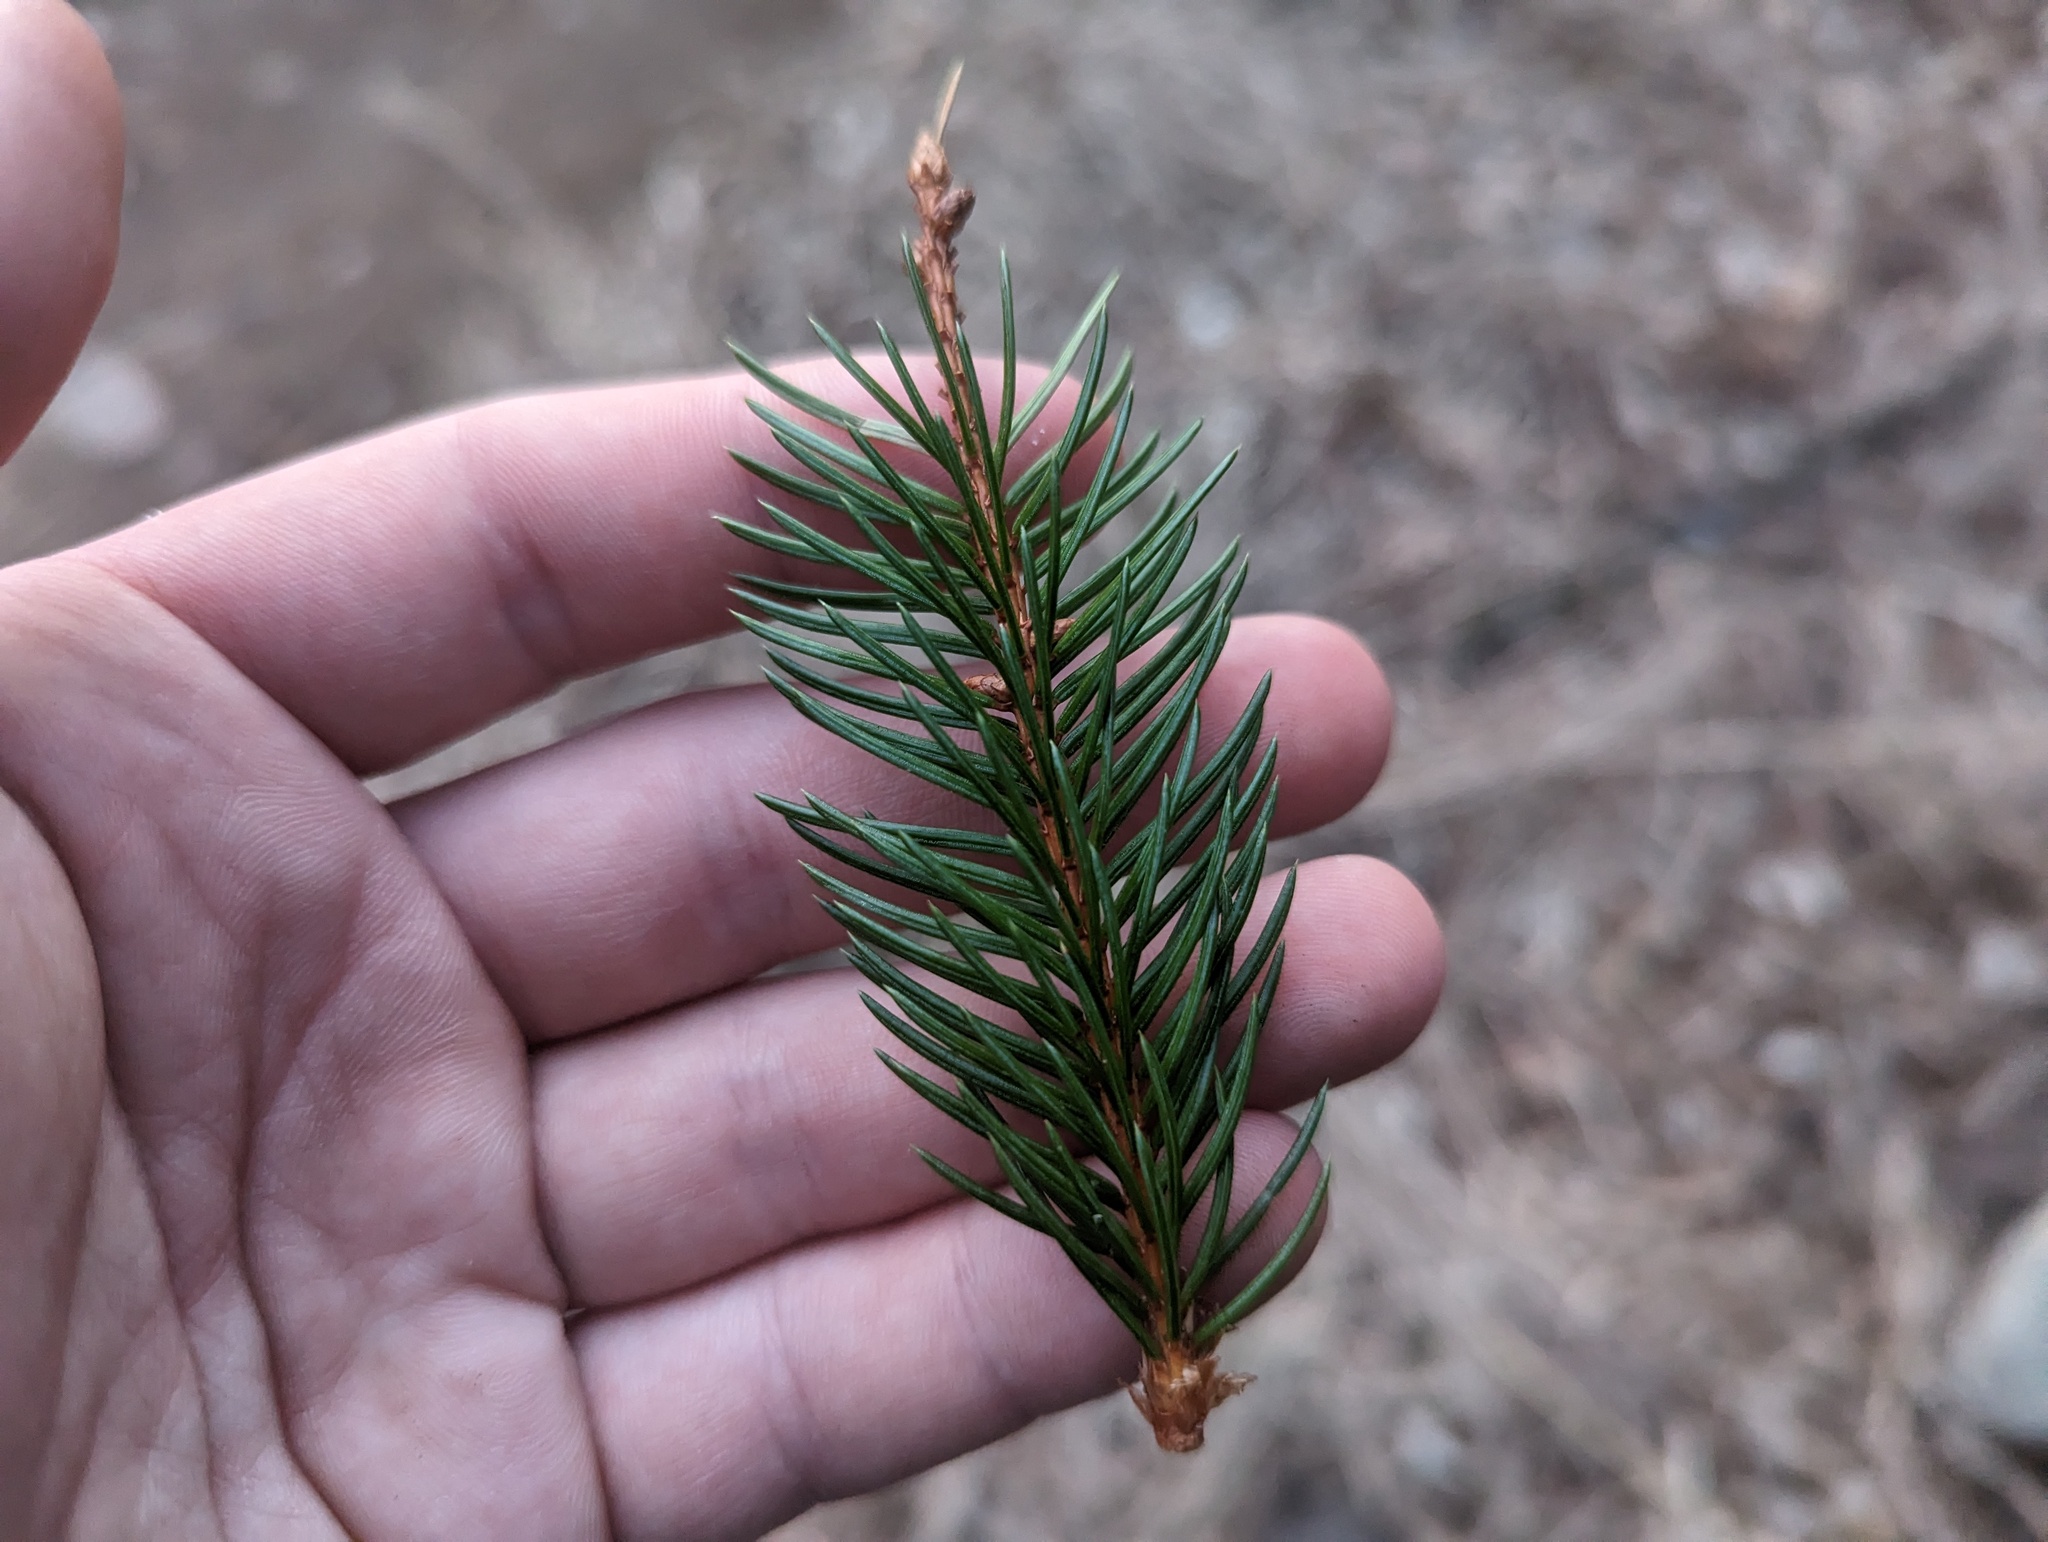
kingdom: Plantae
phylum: Tracheophyta
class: Pinopsida
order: Pinales
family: Pinaceae
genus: Picea
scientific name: Picea abies
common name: Norway spruce
